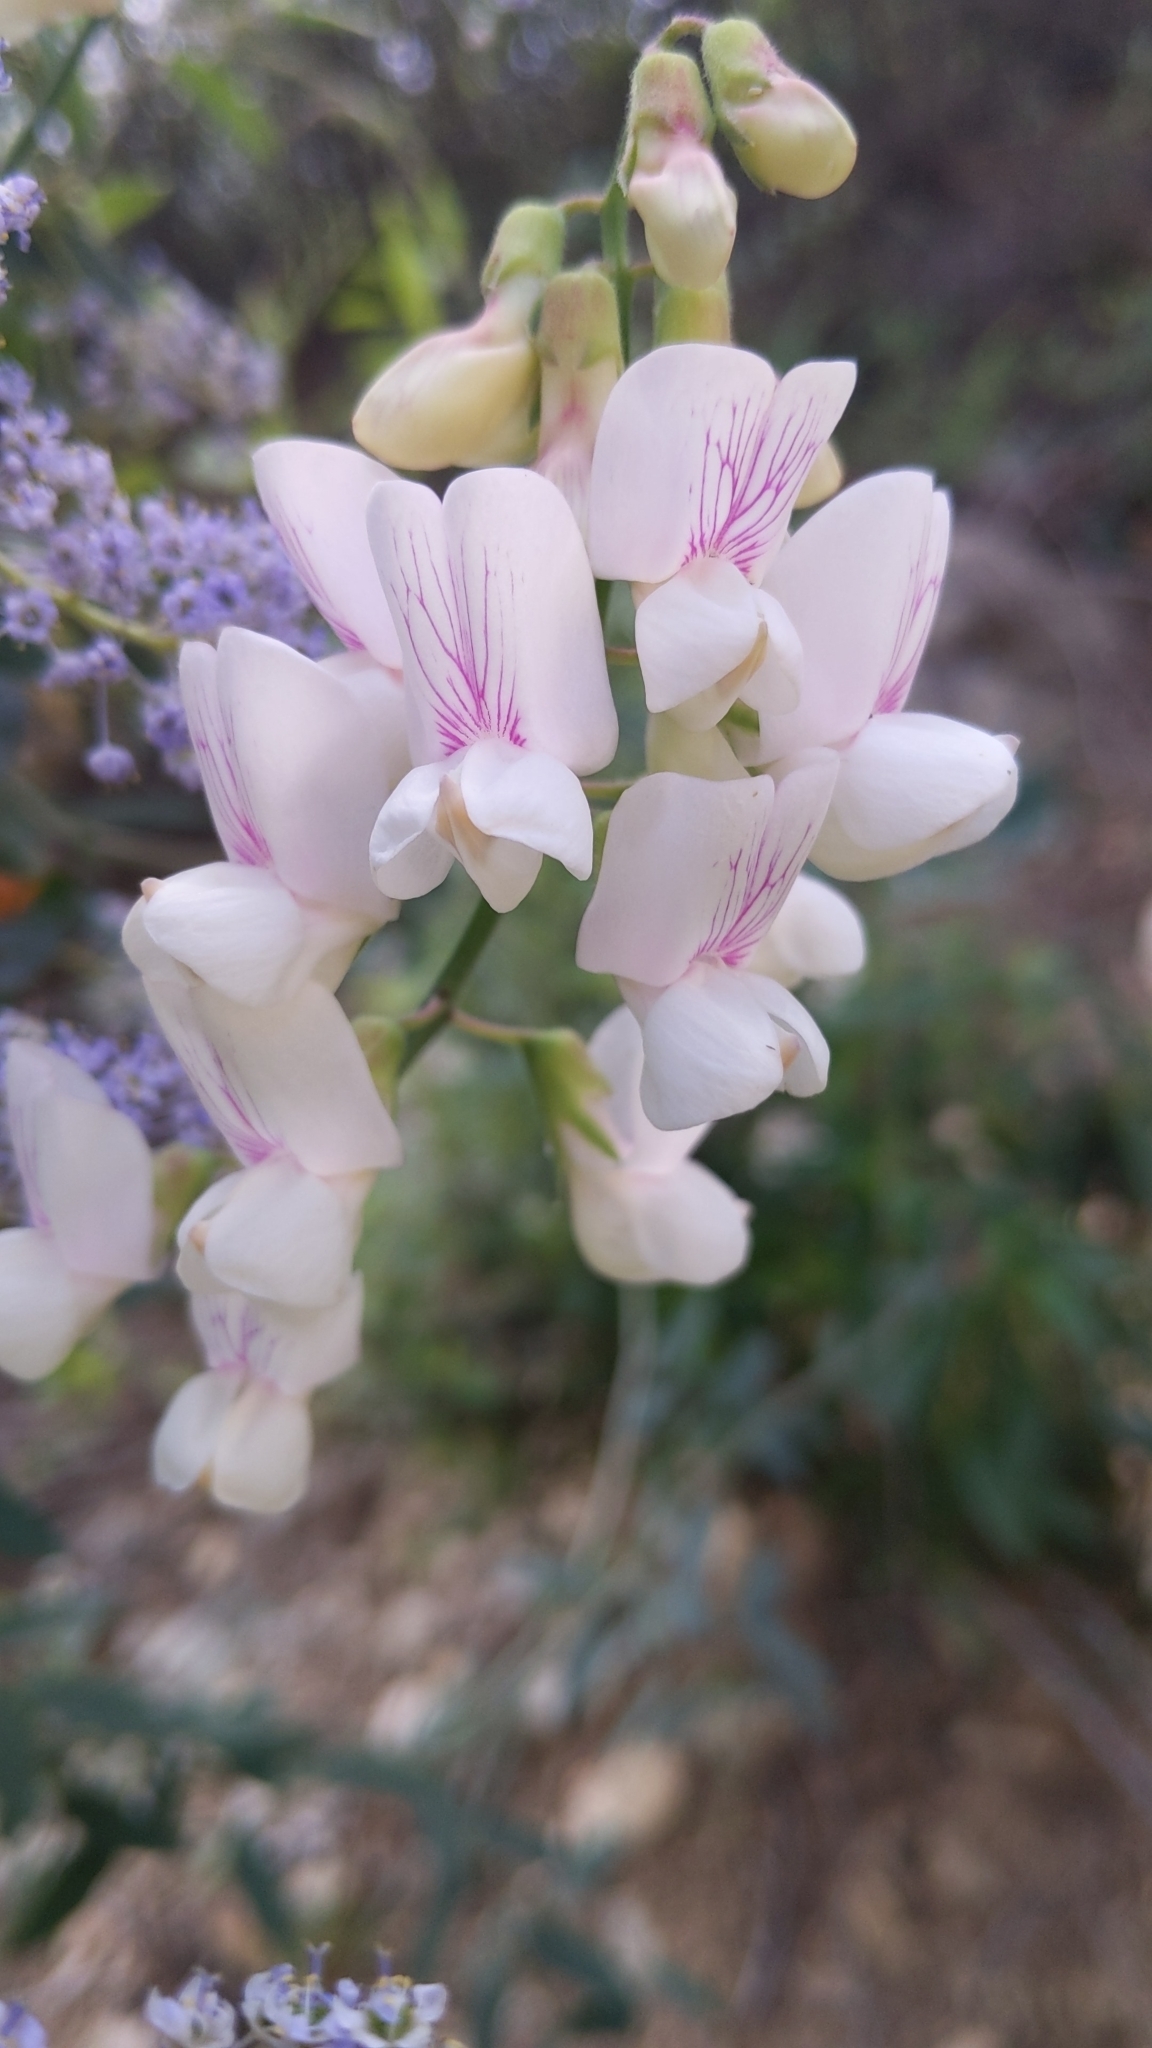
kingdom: Plantae
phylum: Tracheophyta
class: Magnoliopsida
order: Fabales
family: Fabaceae
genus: Lathyrus
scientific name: Lathyrus vestitus
